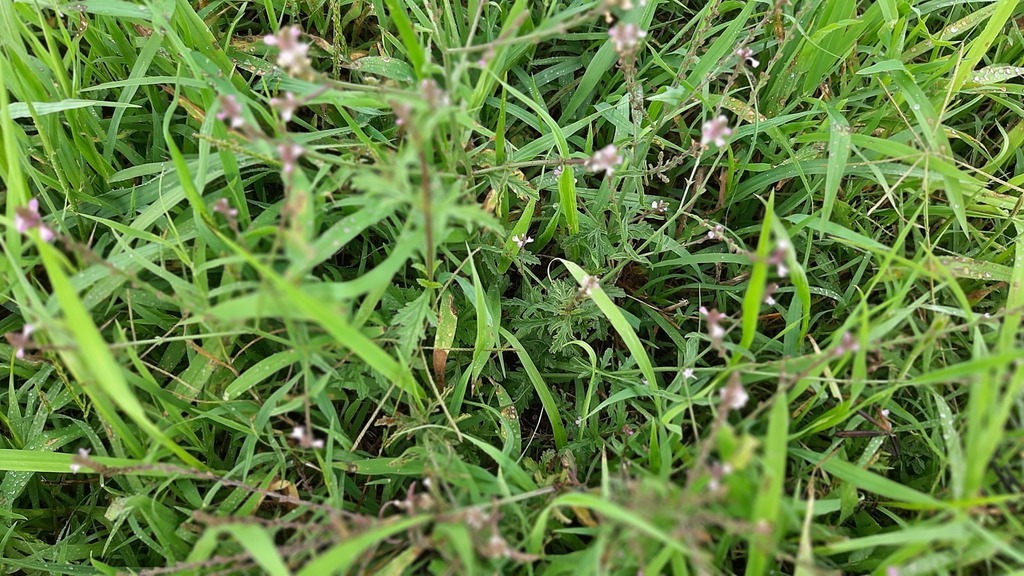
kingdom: Plantae
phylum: Tracheophyta
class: Magnoliopsida
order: Lamiales
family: Verbenaceae
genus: Verbena
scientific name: Verbena officinalis
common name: Vervain
